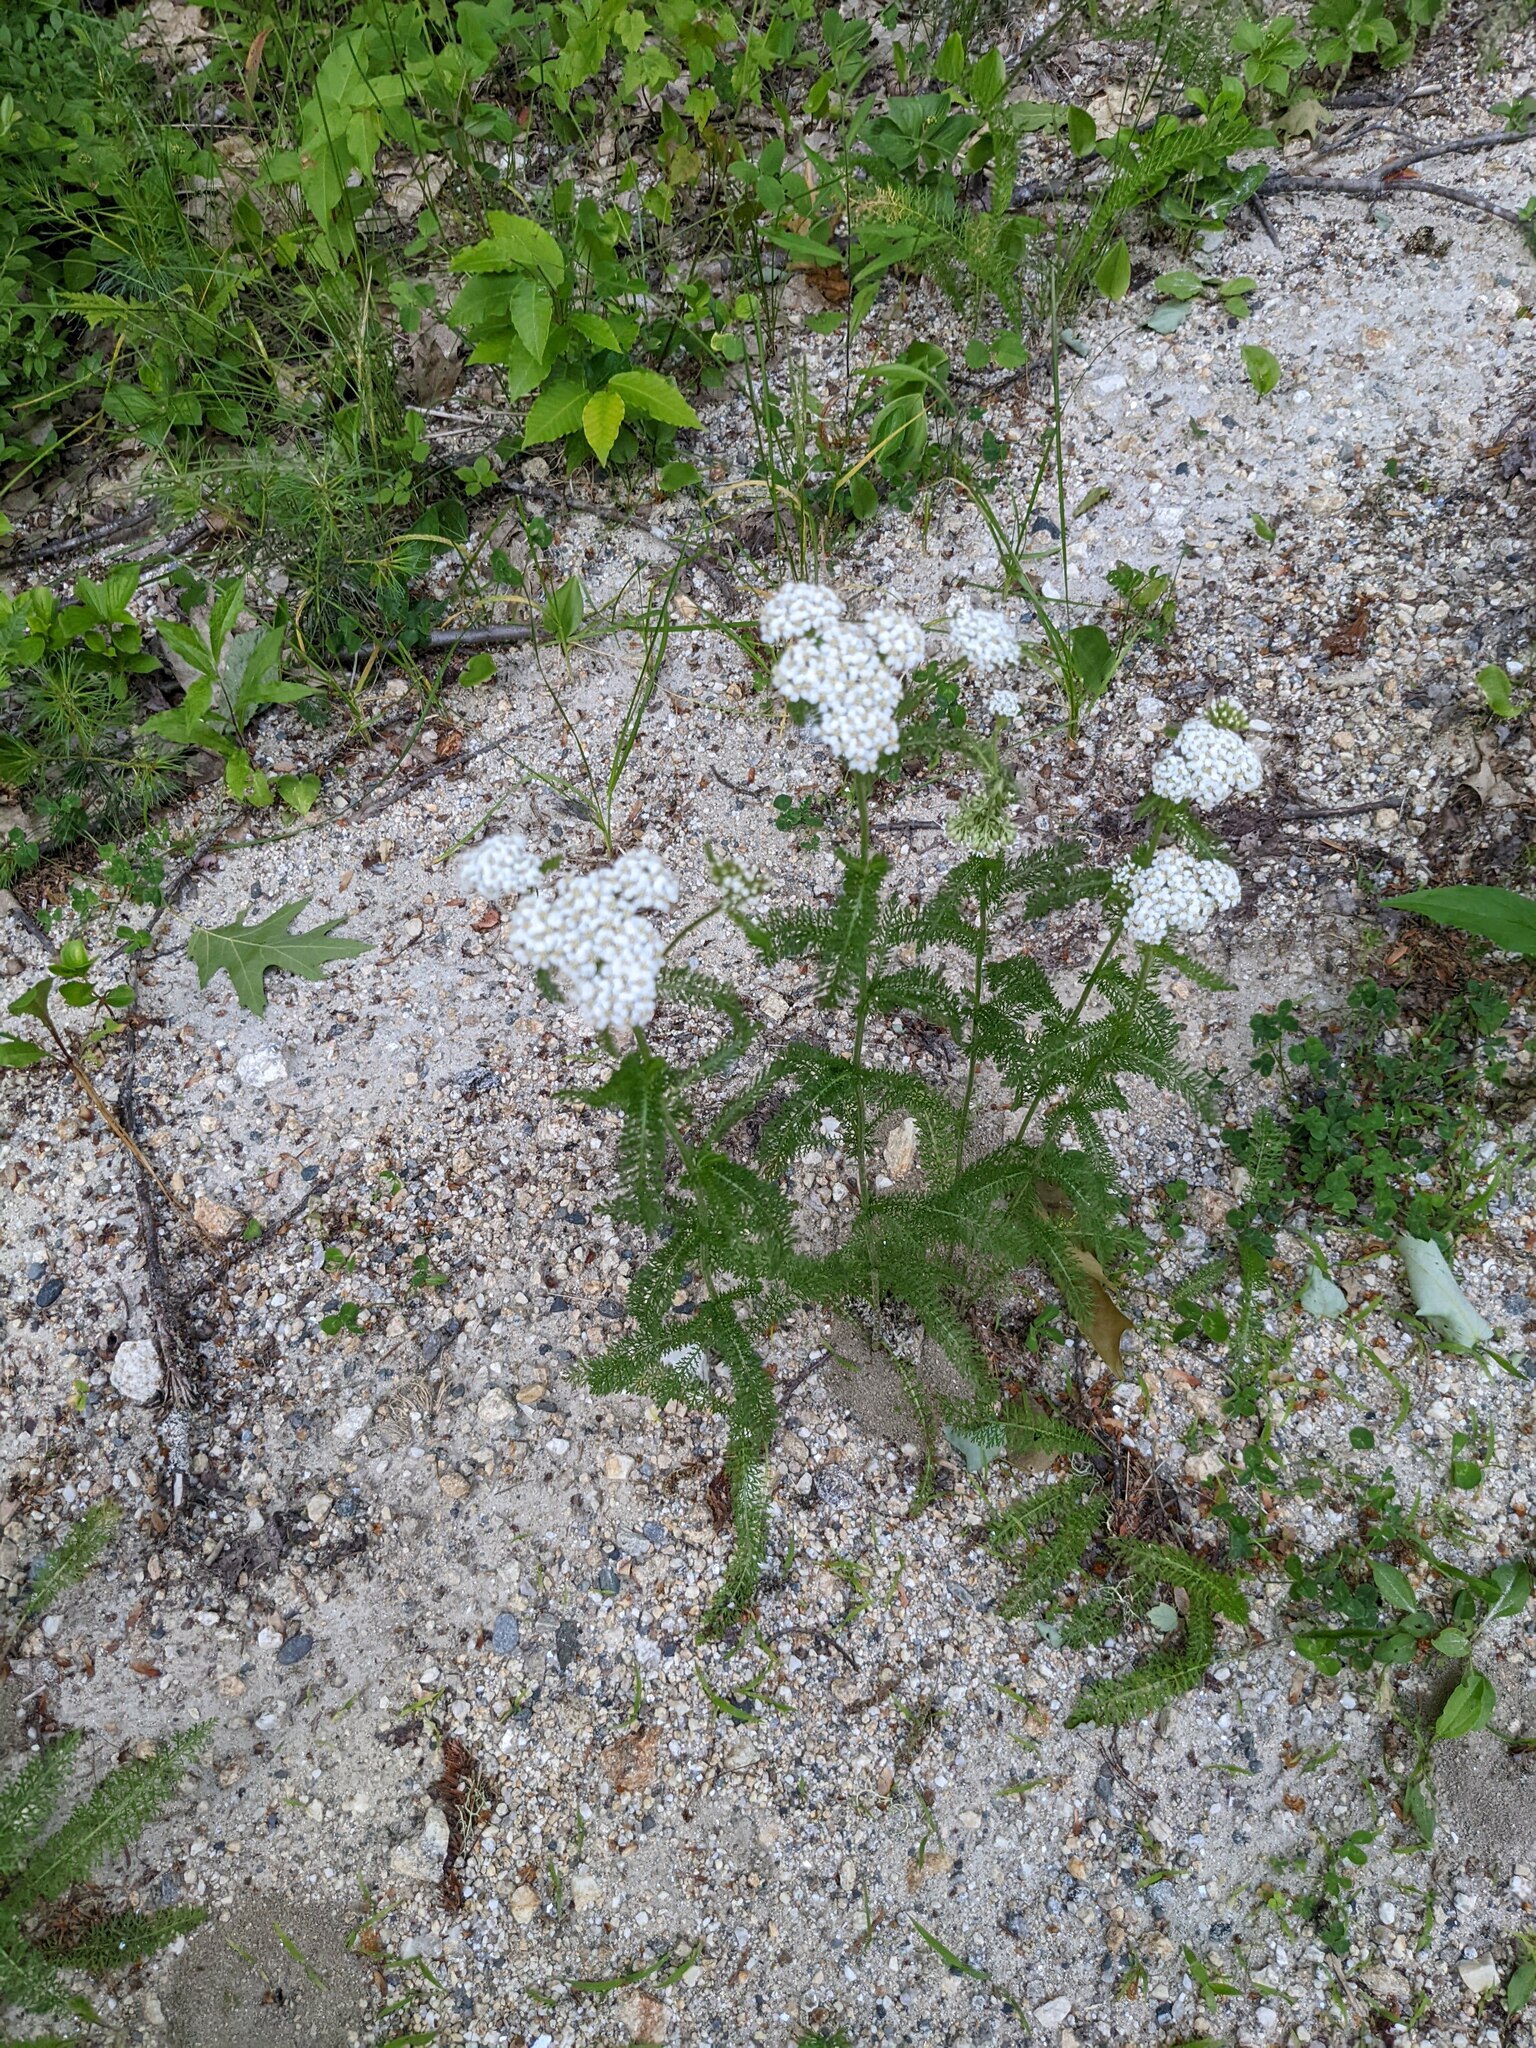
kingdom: Plantae
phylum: Tracheophyta
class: Magnoliopsida
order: Asterales
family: Asteraceae
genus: Achillea
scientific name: Achillea millefolium
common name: Yarrow
